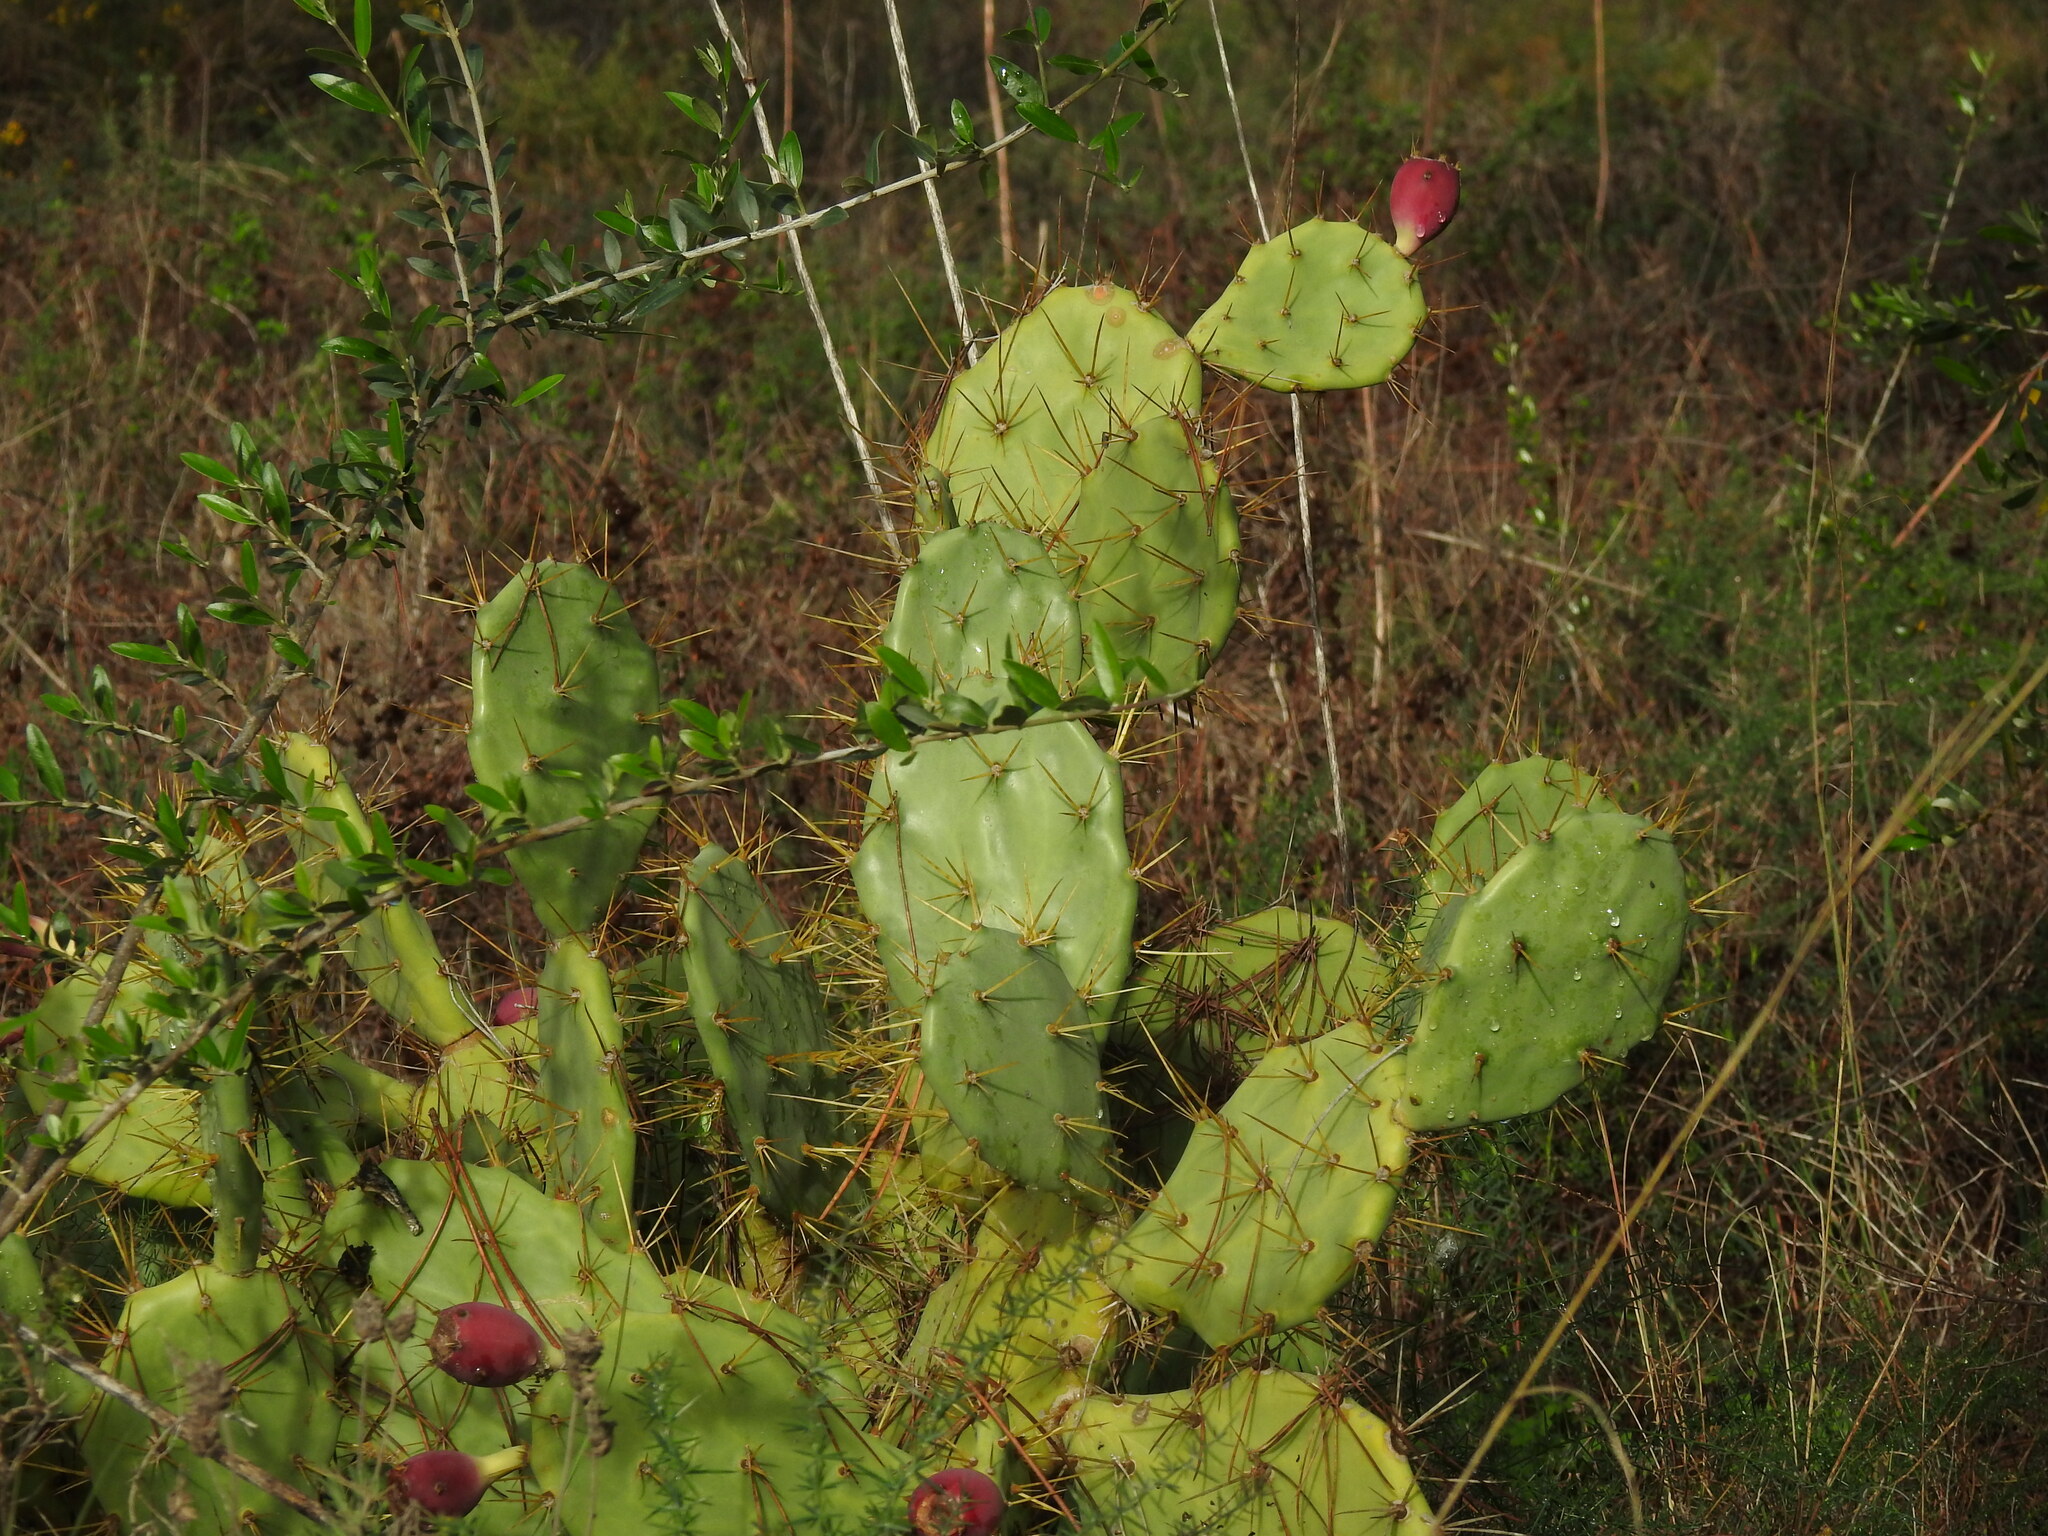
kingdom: Plantae
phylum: Tracheophyta
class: Magnoliopsida
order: Caryophyllales
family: Cactaceae
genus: Opuntia
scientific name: Opuntia stricta
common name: Erect pricklypear
